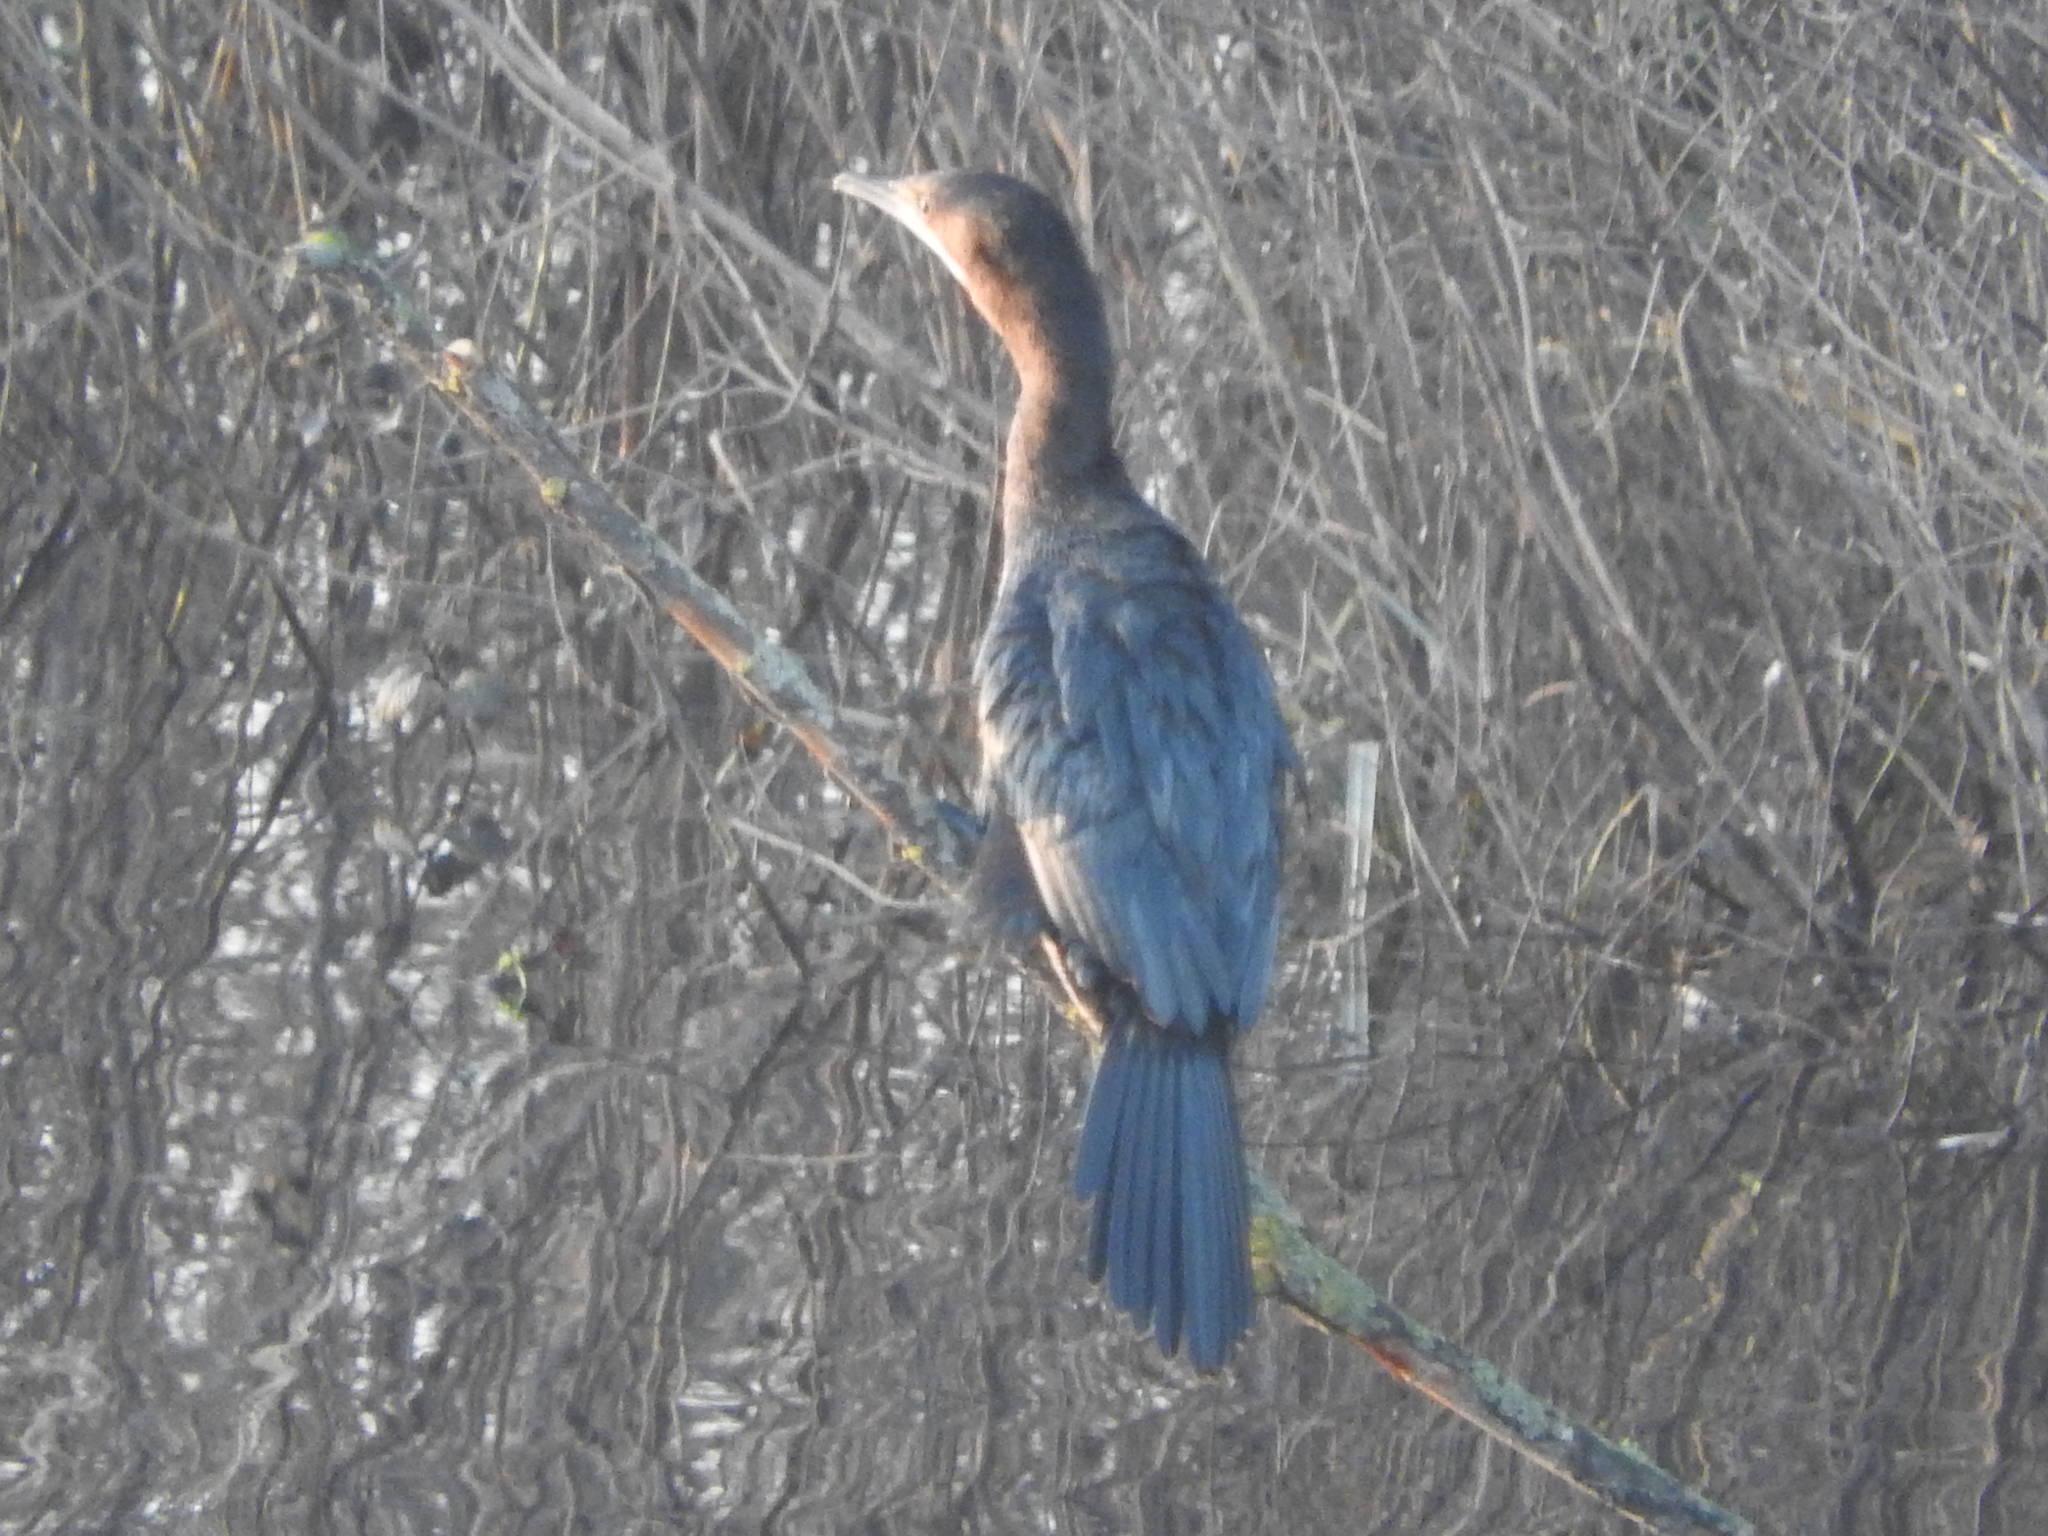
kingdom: Animalia
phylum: Chordata
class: Aves
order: Suliformes
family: Phalacrocoracidae
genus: Microcarbo
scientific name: Microcarbo pygmaeus
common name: Pygmy cormorant
